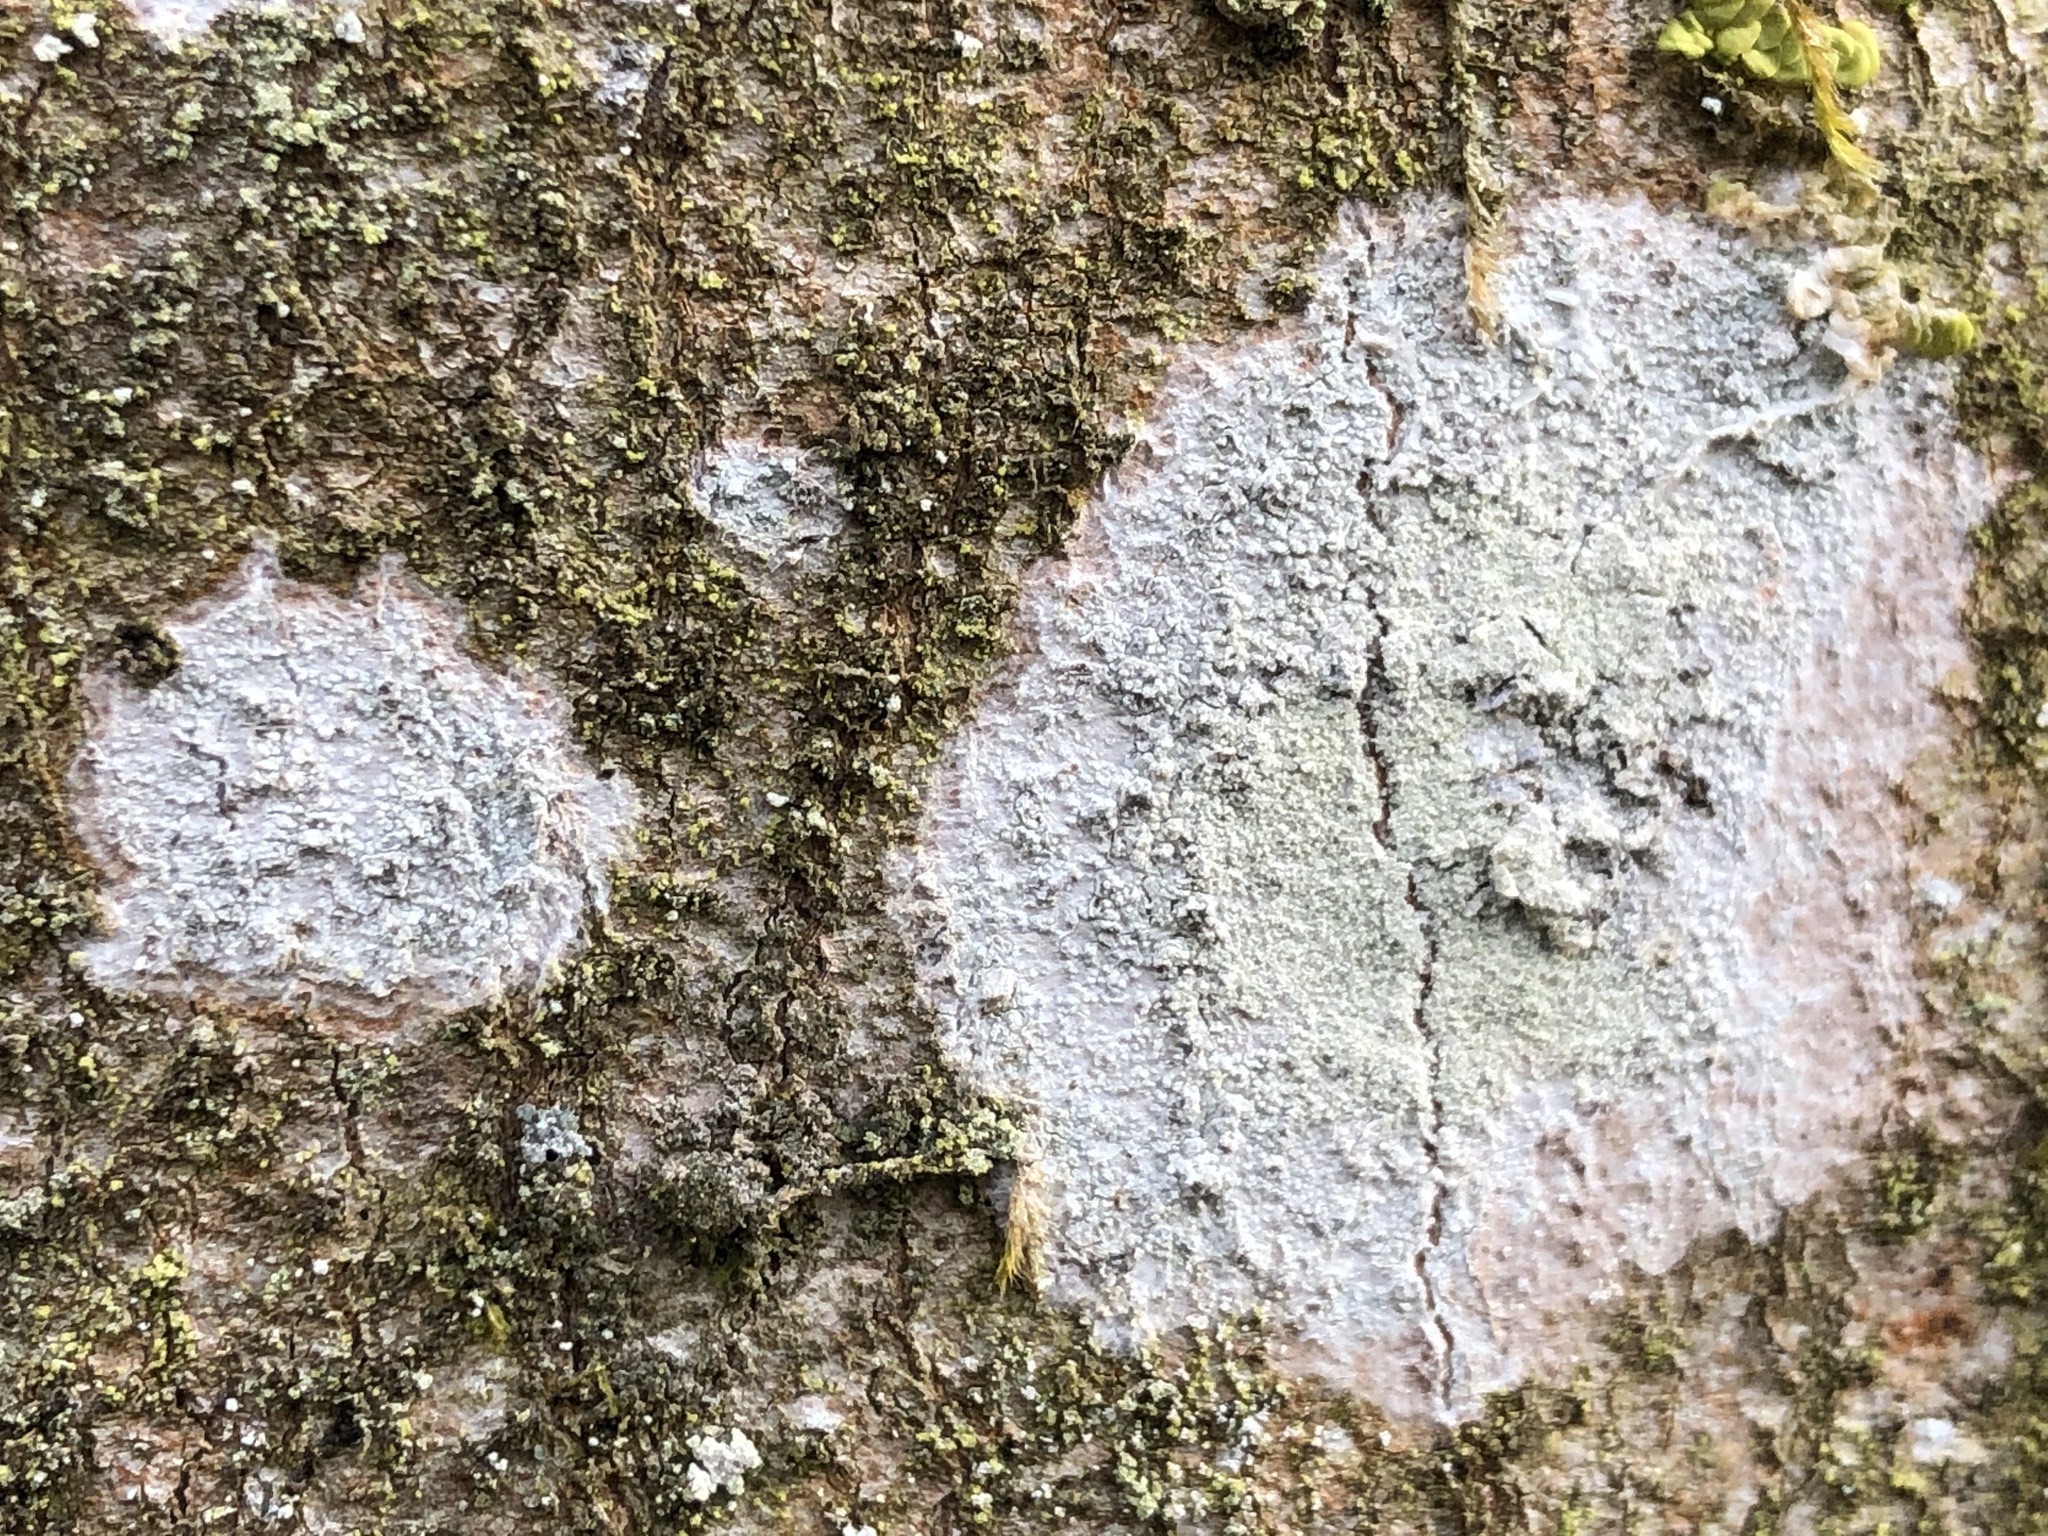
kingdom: Fungi
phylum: Ascomycota
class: Lecanoromycetes
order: Ostropales
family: Phlyctidaceae
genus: Phlyctis
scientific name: Phlyctis argena
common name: Whitewash lichen
